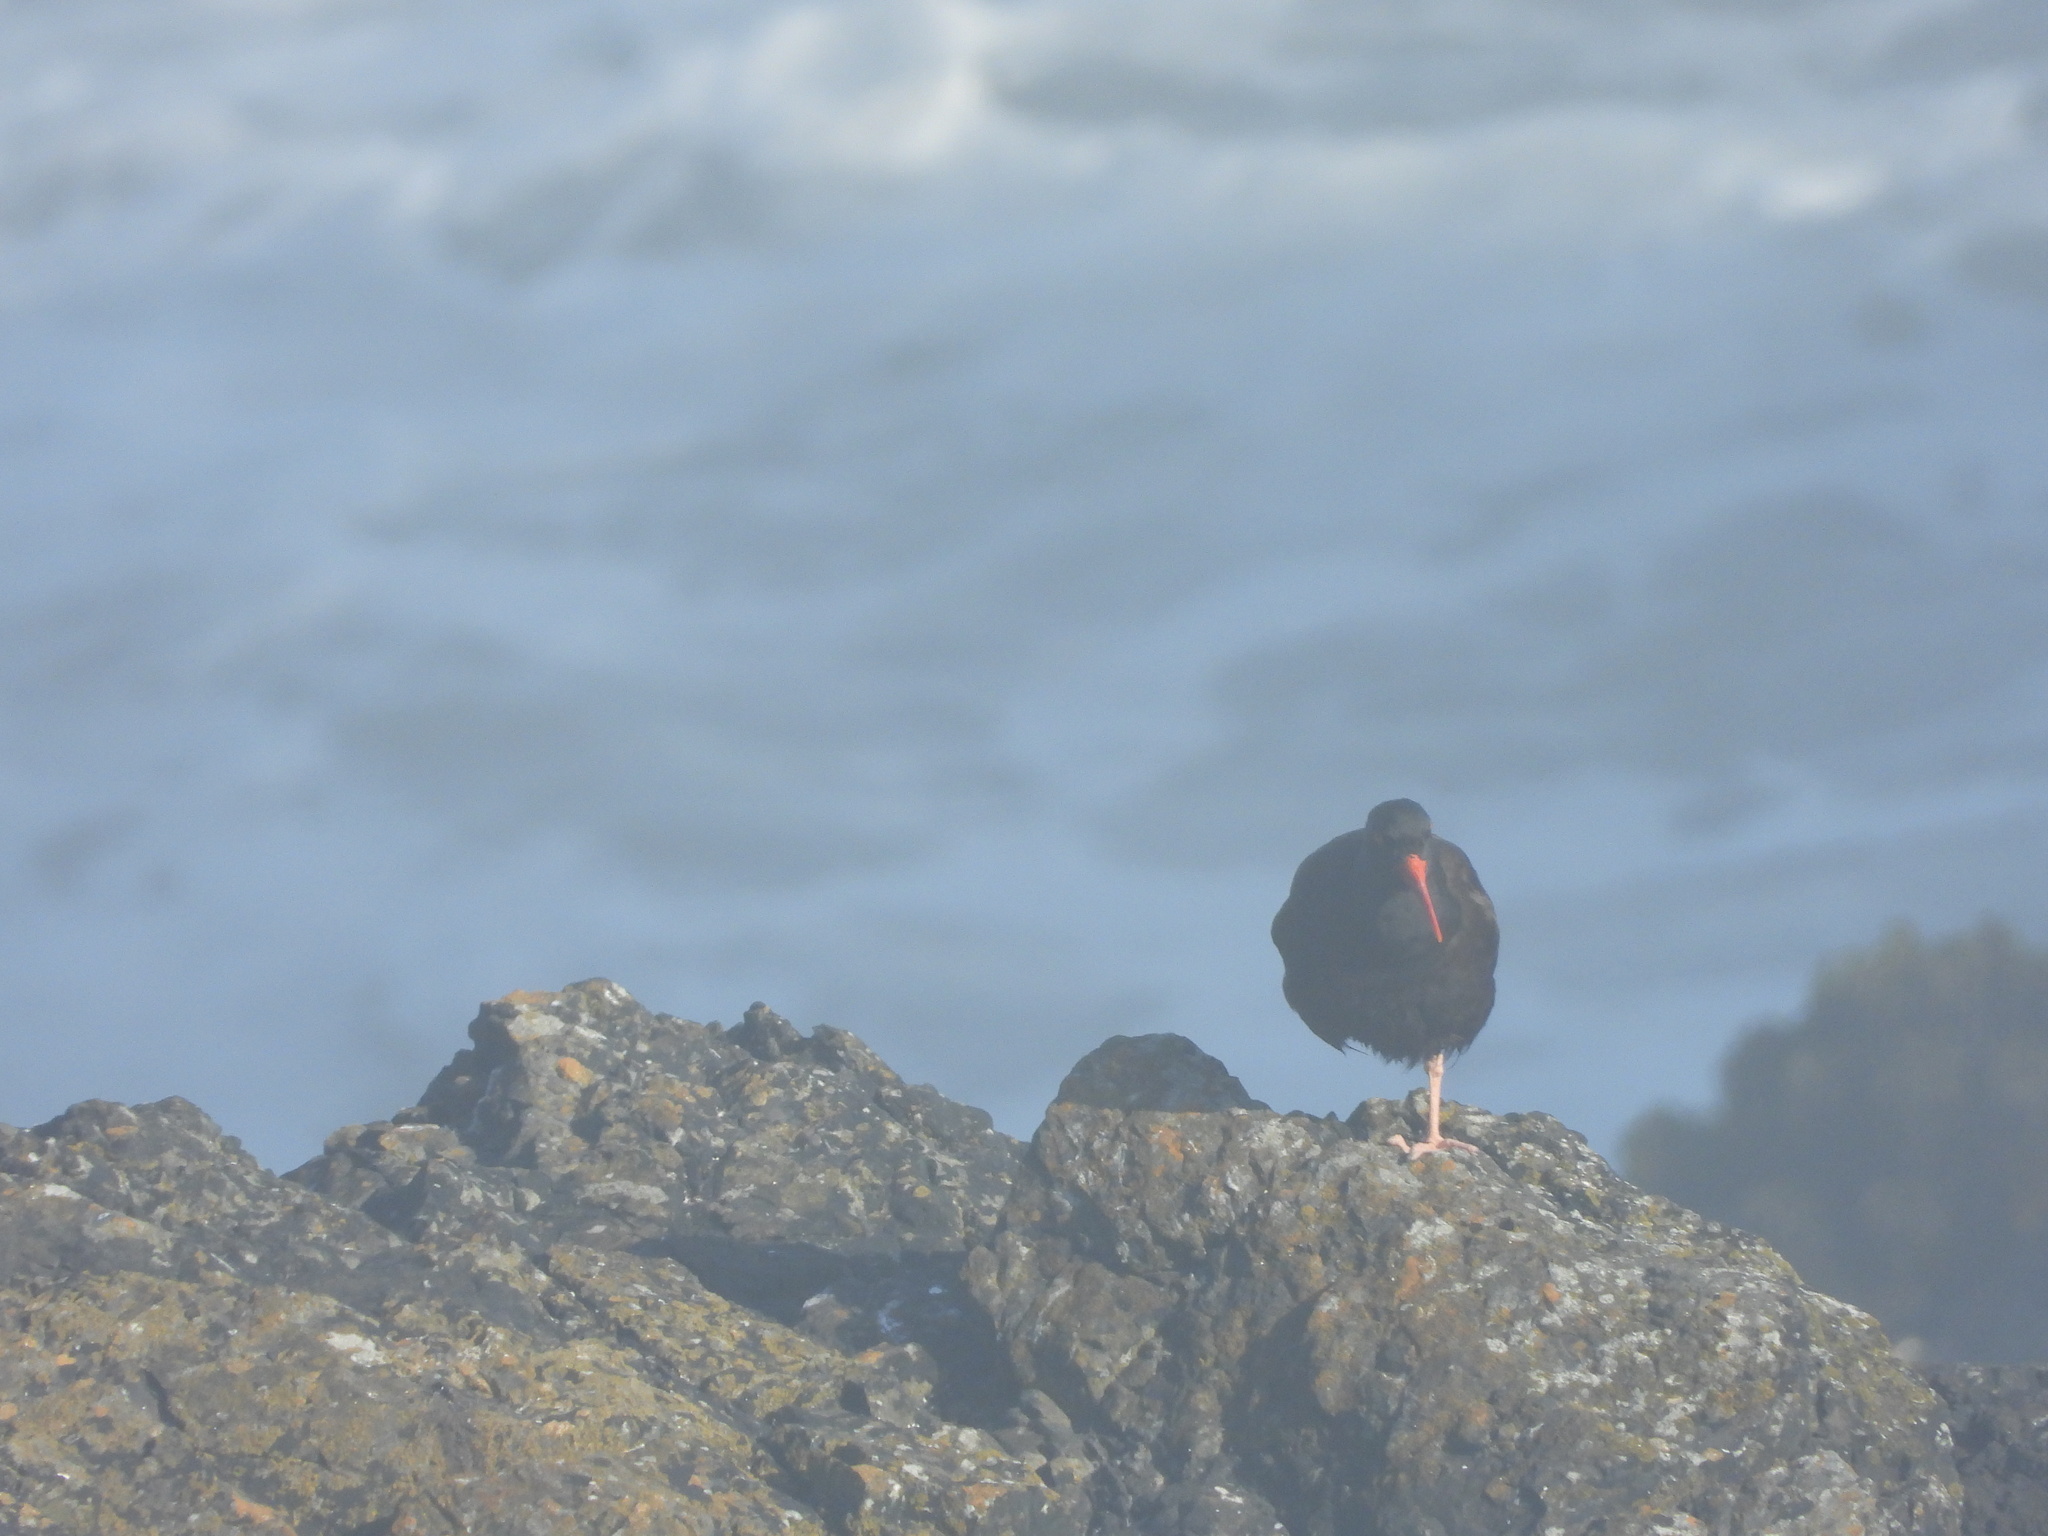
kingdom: Animalia
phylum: Chordata
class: Aves
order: Charadriiformes
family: Haematopodidae
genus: Haematopus
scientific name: Haematopus bachmani
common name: Black oystercatcher
